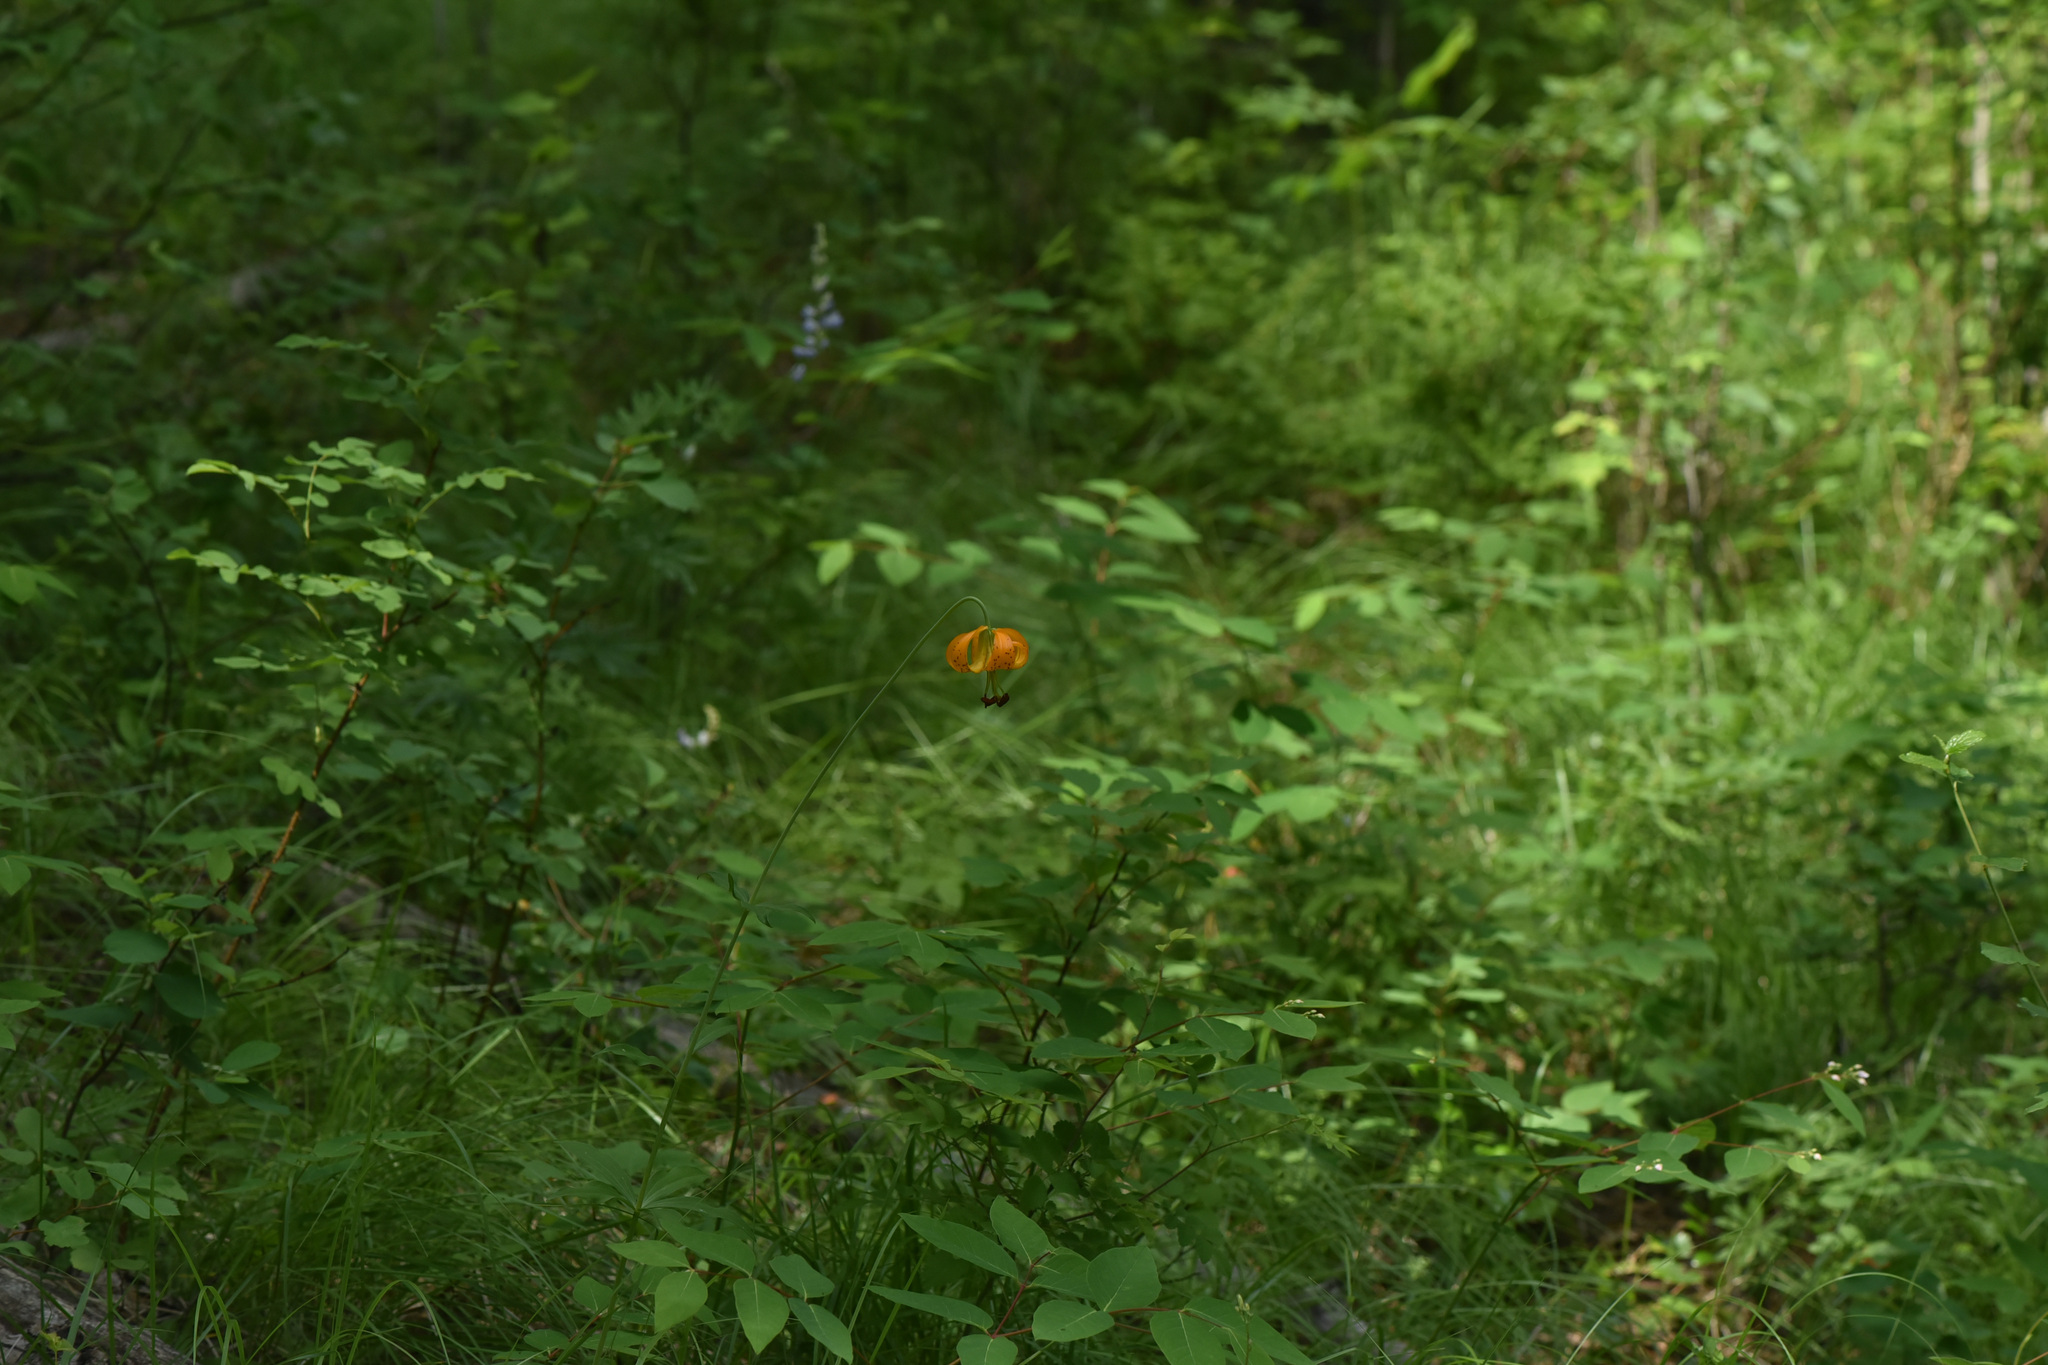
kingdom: Plantae
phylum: Tracheophyta
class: Liliopsida
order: Liliales
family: Liliaceae
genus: Lilium
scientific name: Lilium columbianum
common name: Columbia lily
